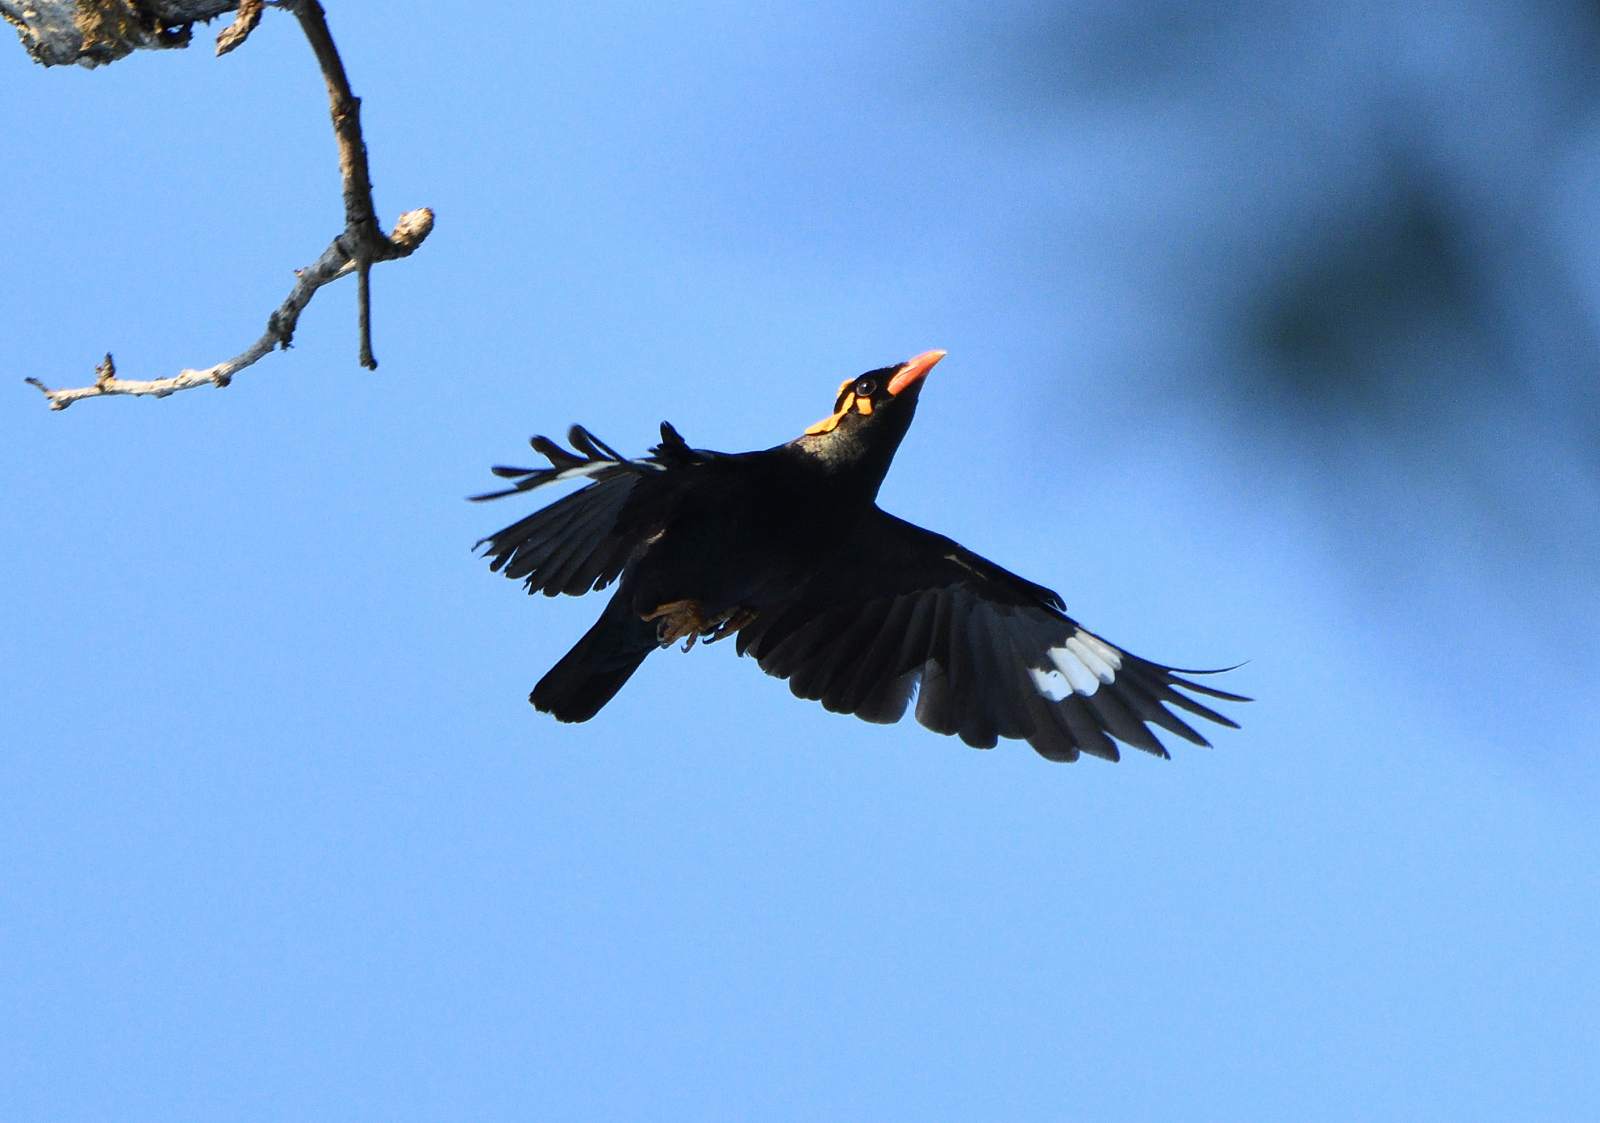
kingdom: Animalia
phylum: Chordata
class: Aves
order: Passeriformes
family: Sturnidae
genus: Gracula
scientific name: Gracula indica
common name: Southern hill myna
